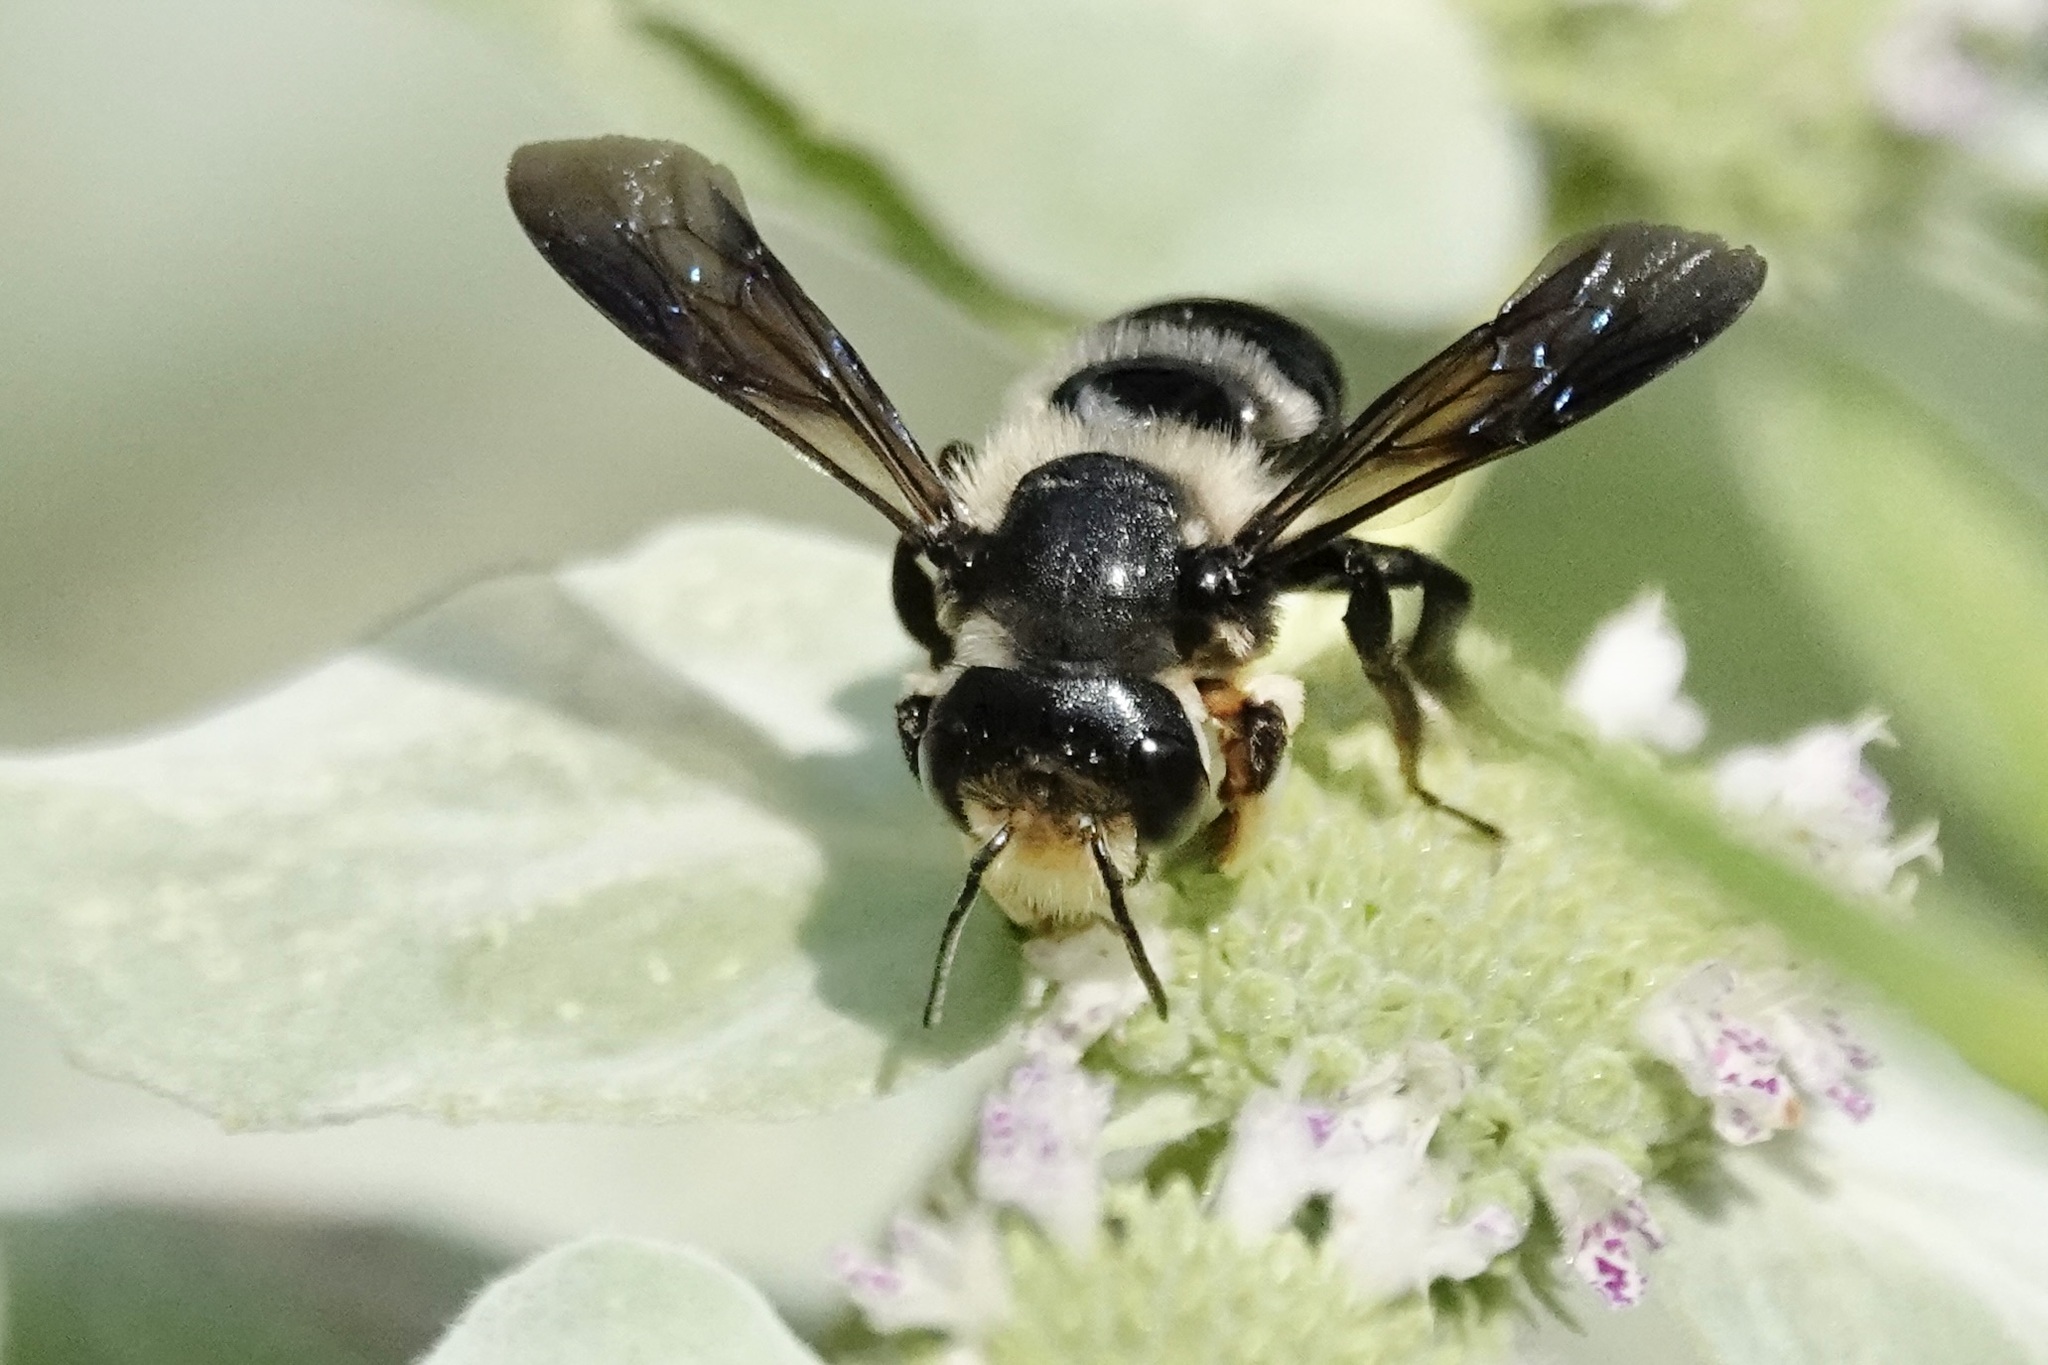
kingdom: Animalia
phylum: Arthropoda
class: Insecta
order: Hymenoptera
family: Megachilidae
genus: Megachile
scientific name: Megachile xylocopoides
